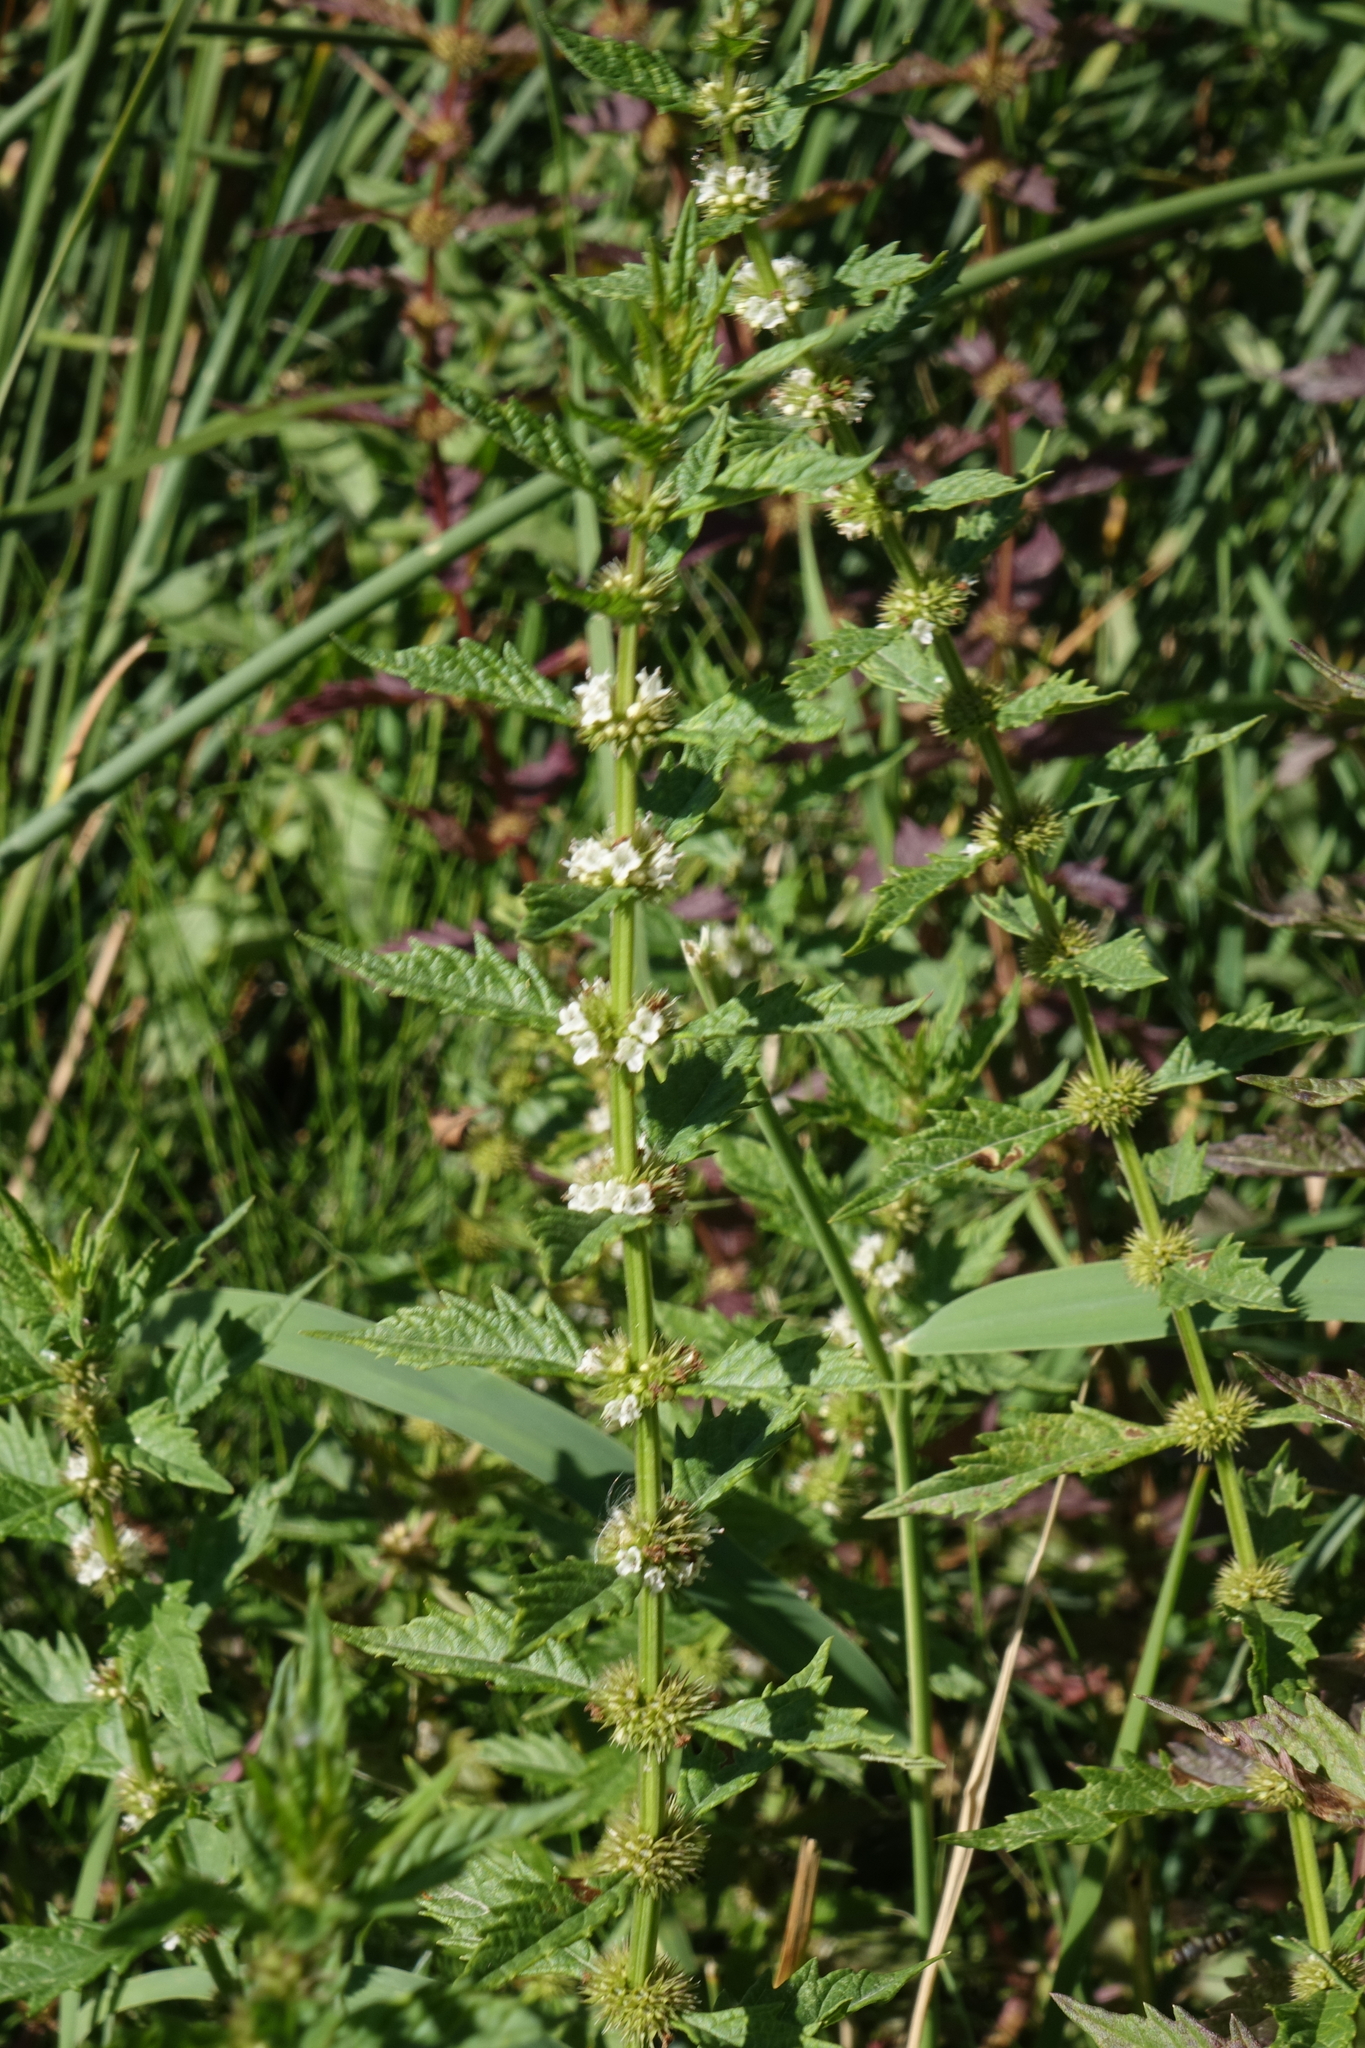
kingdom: Plantae
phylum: Tracheophyta
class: Magnoliopsida
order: Lamiales
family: Lamiaceae
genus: Lycopus
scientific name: Lycopus europaeus
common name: European bugleweed
